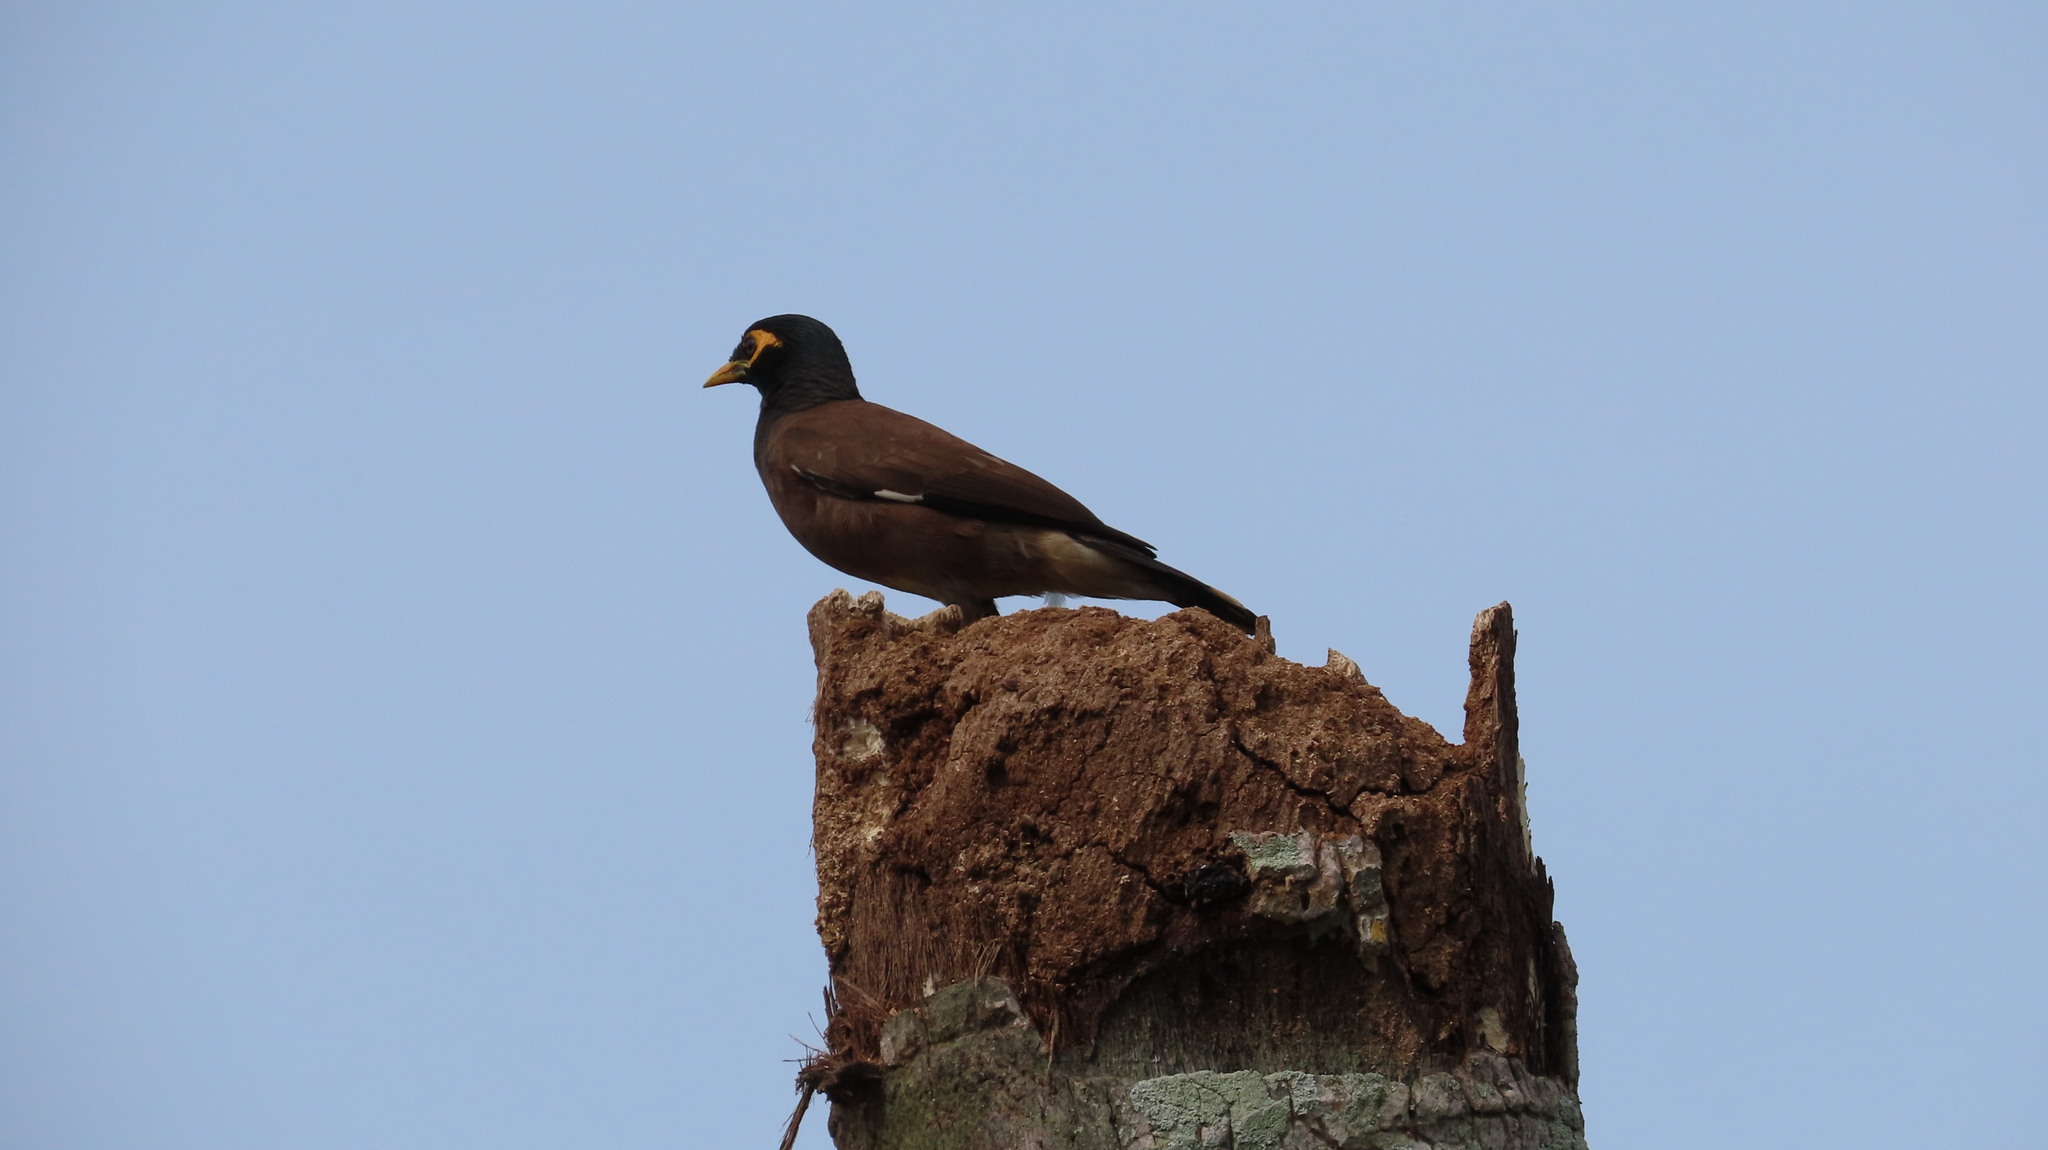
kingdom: Animalia
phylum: Chordata
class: Aves
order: Passeriformes
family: Sturnidae
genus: Acridotheres
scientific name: Acridotheres tristis
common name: Common myna
